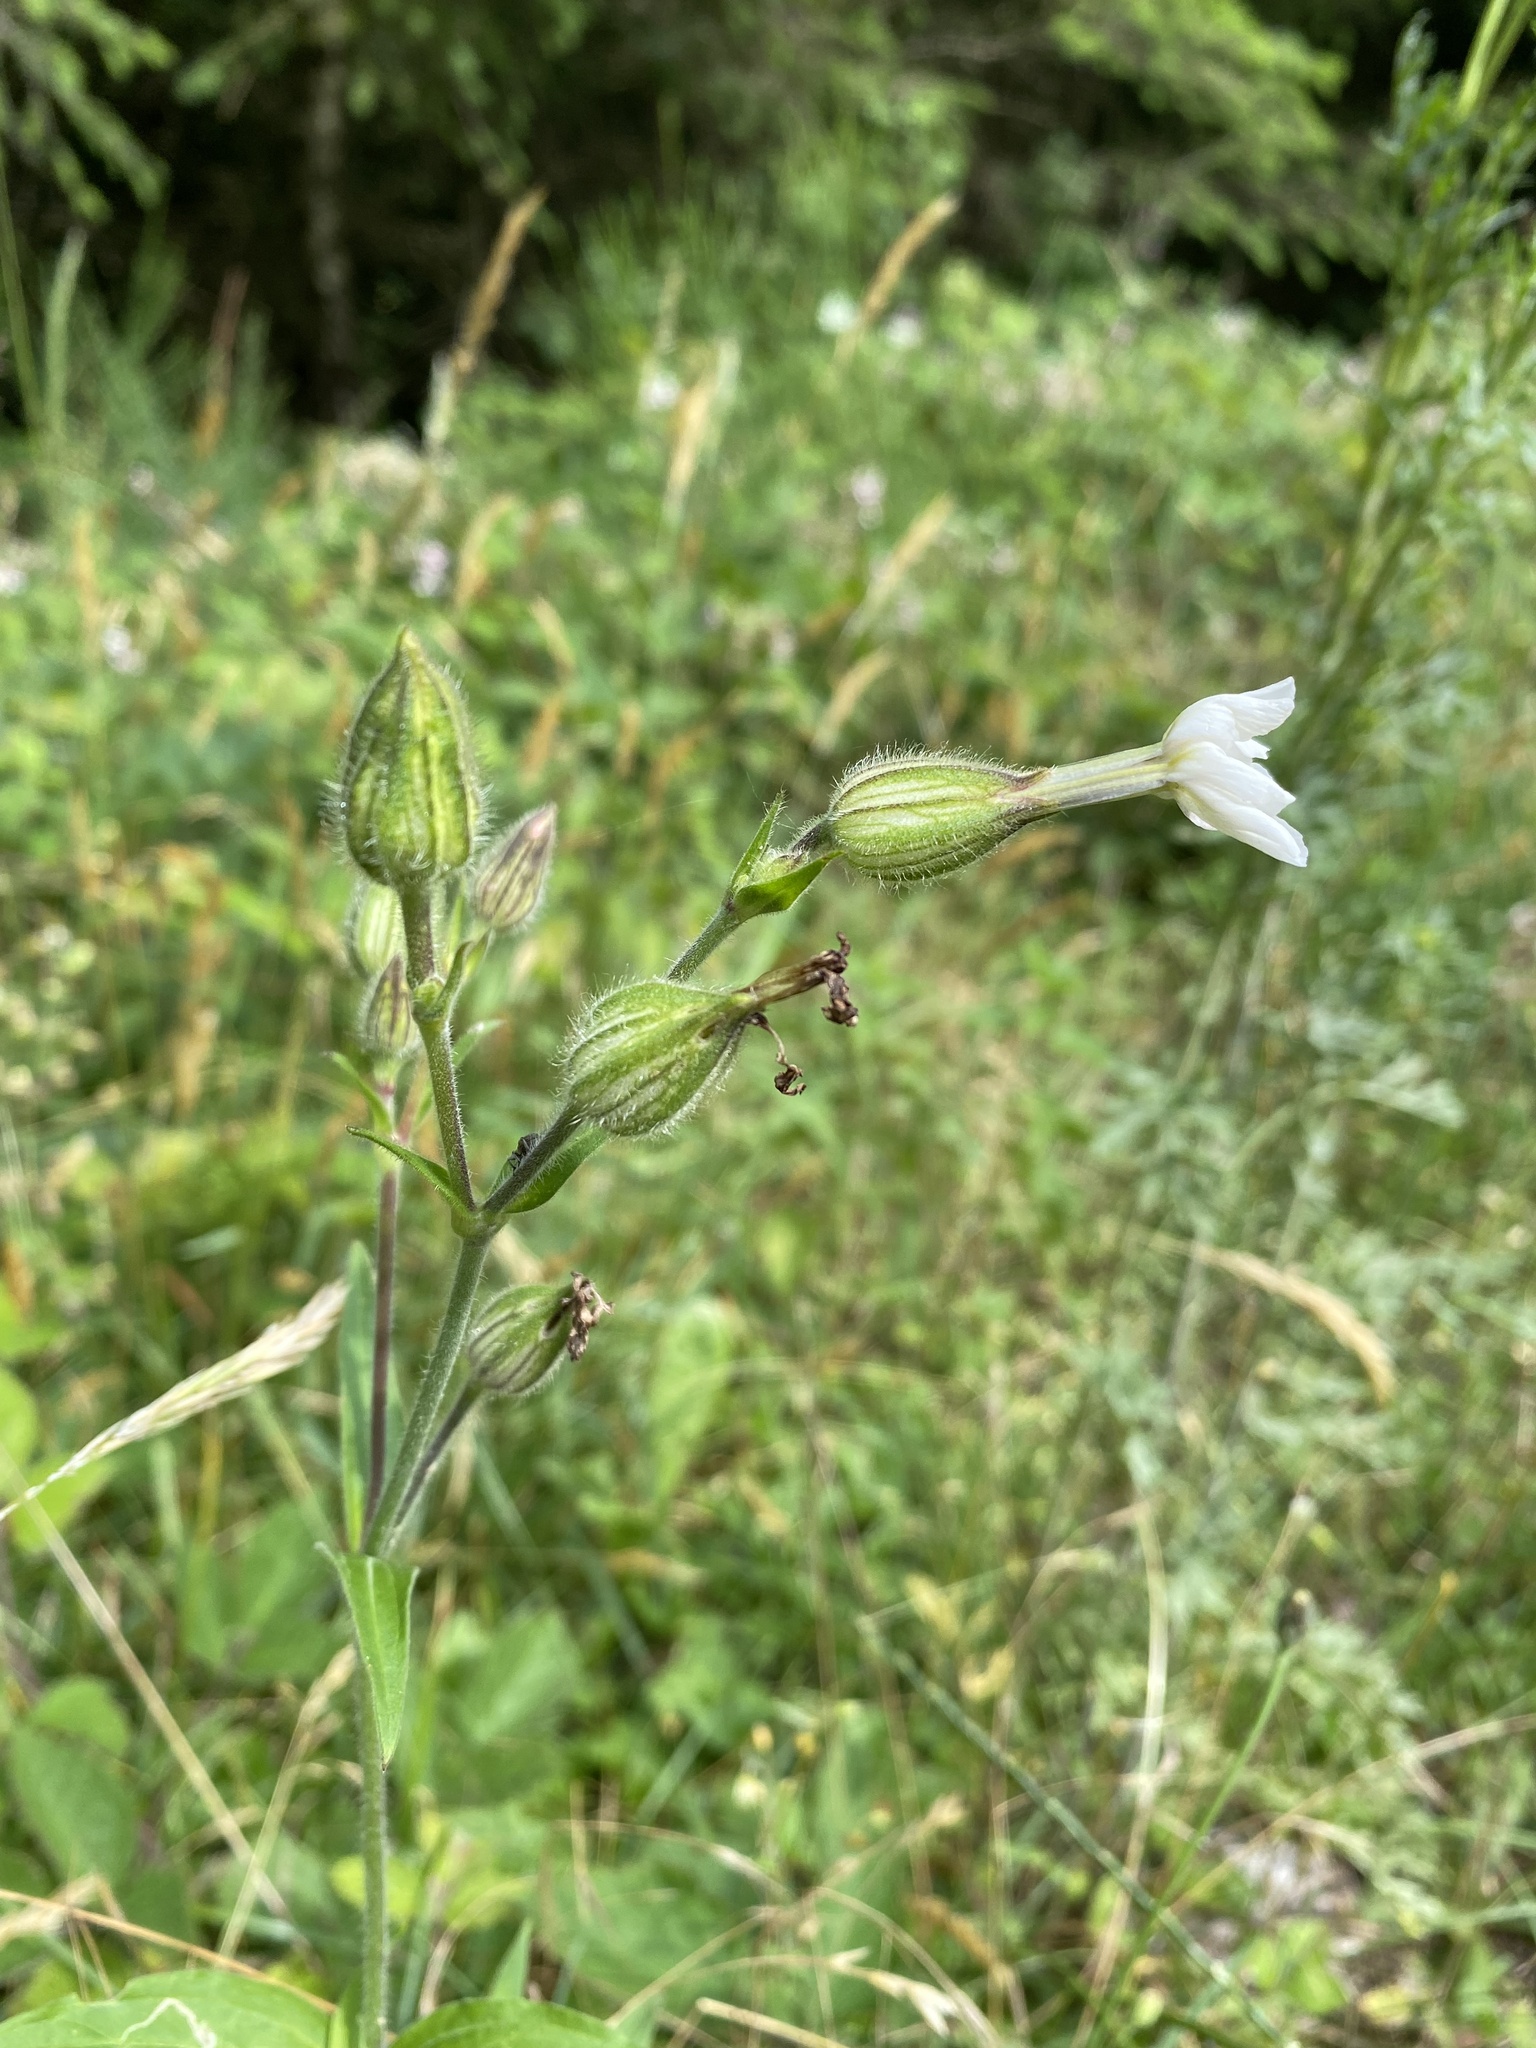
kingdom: Plantae
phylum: Tracheophyta
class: Magnoliopsida
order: Caryophyllales
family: Caryophyllaceae
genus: Silene
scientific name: Silene latifolia
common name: White campion
